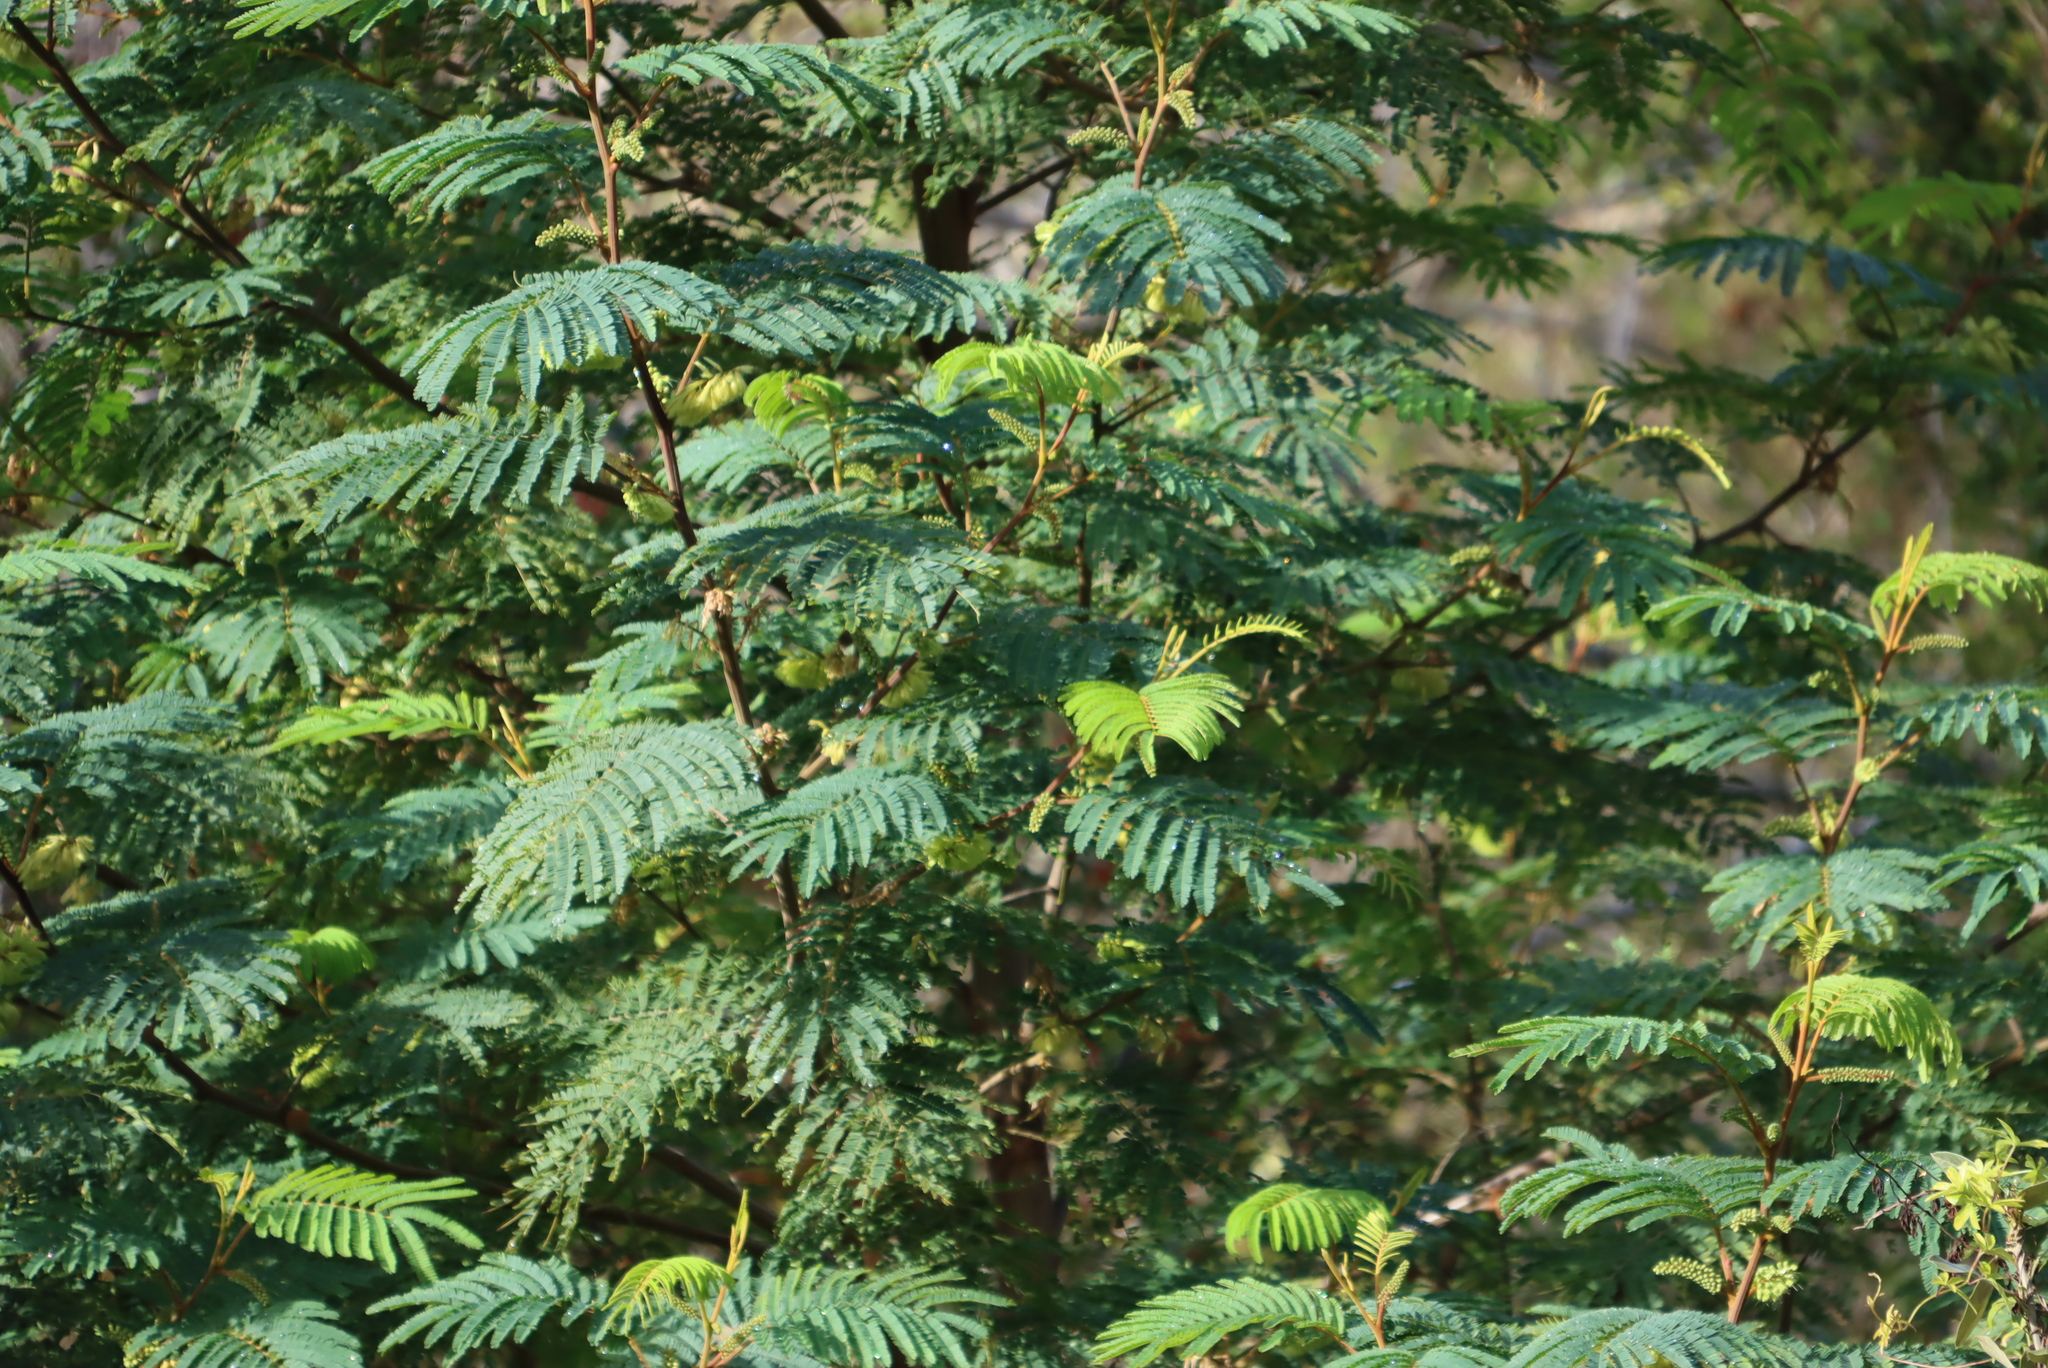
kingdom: Plantae
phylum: Tracheophyta
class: Magnoliopsida
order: Fabales
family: Fabaceae
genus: Paraserianthes
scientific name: Paraserianthes lophantha
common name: Plume albizia
